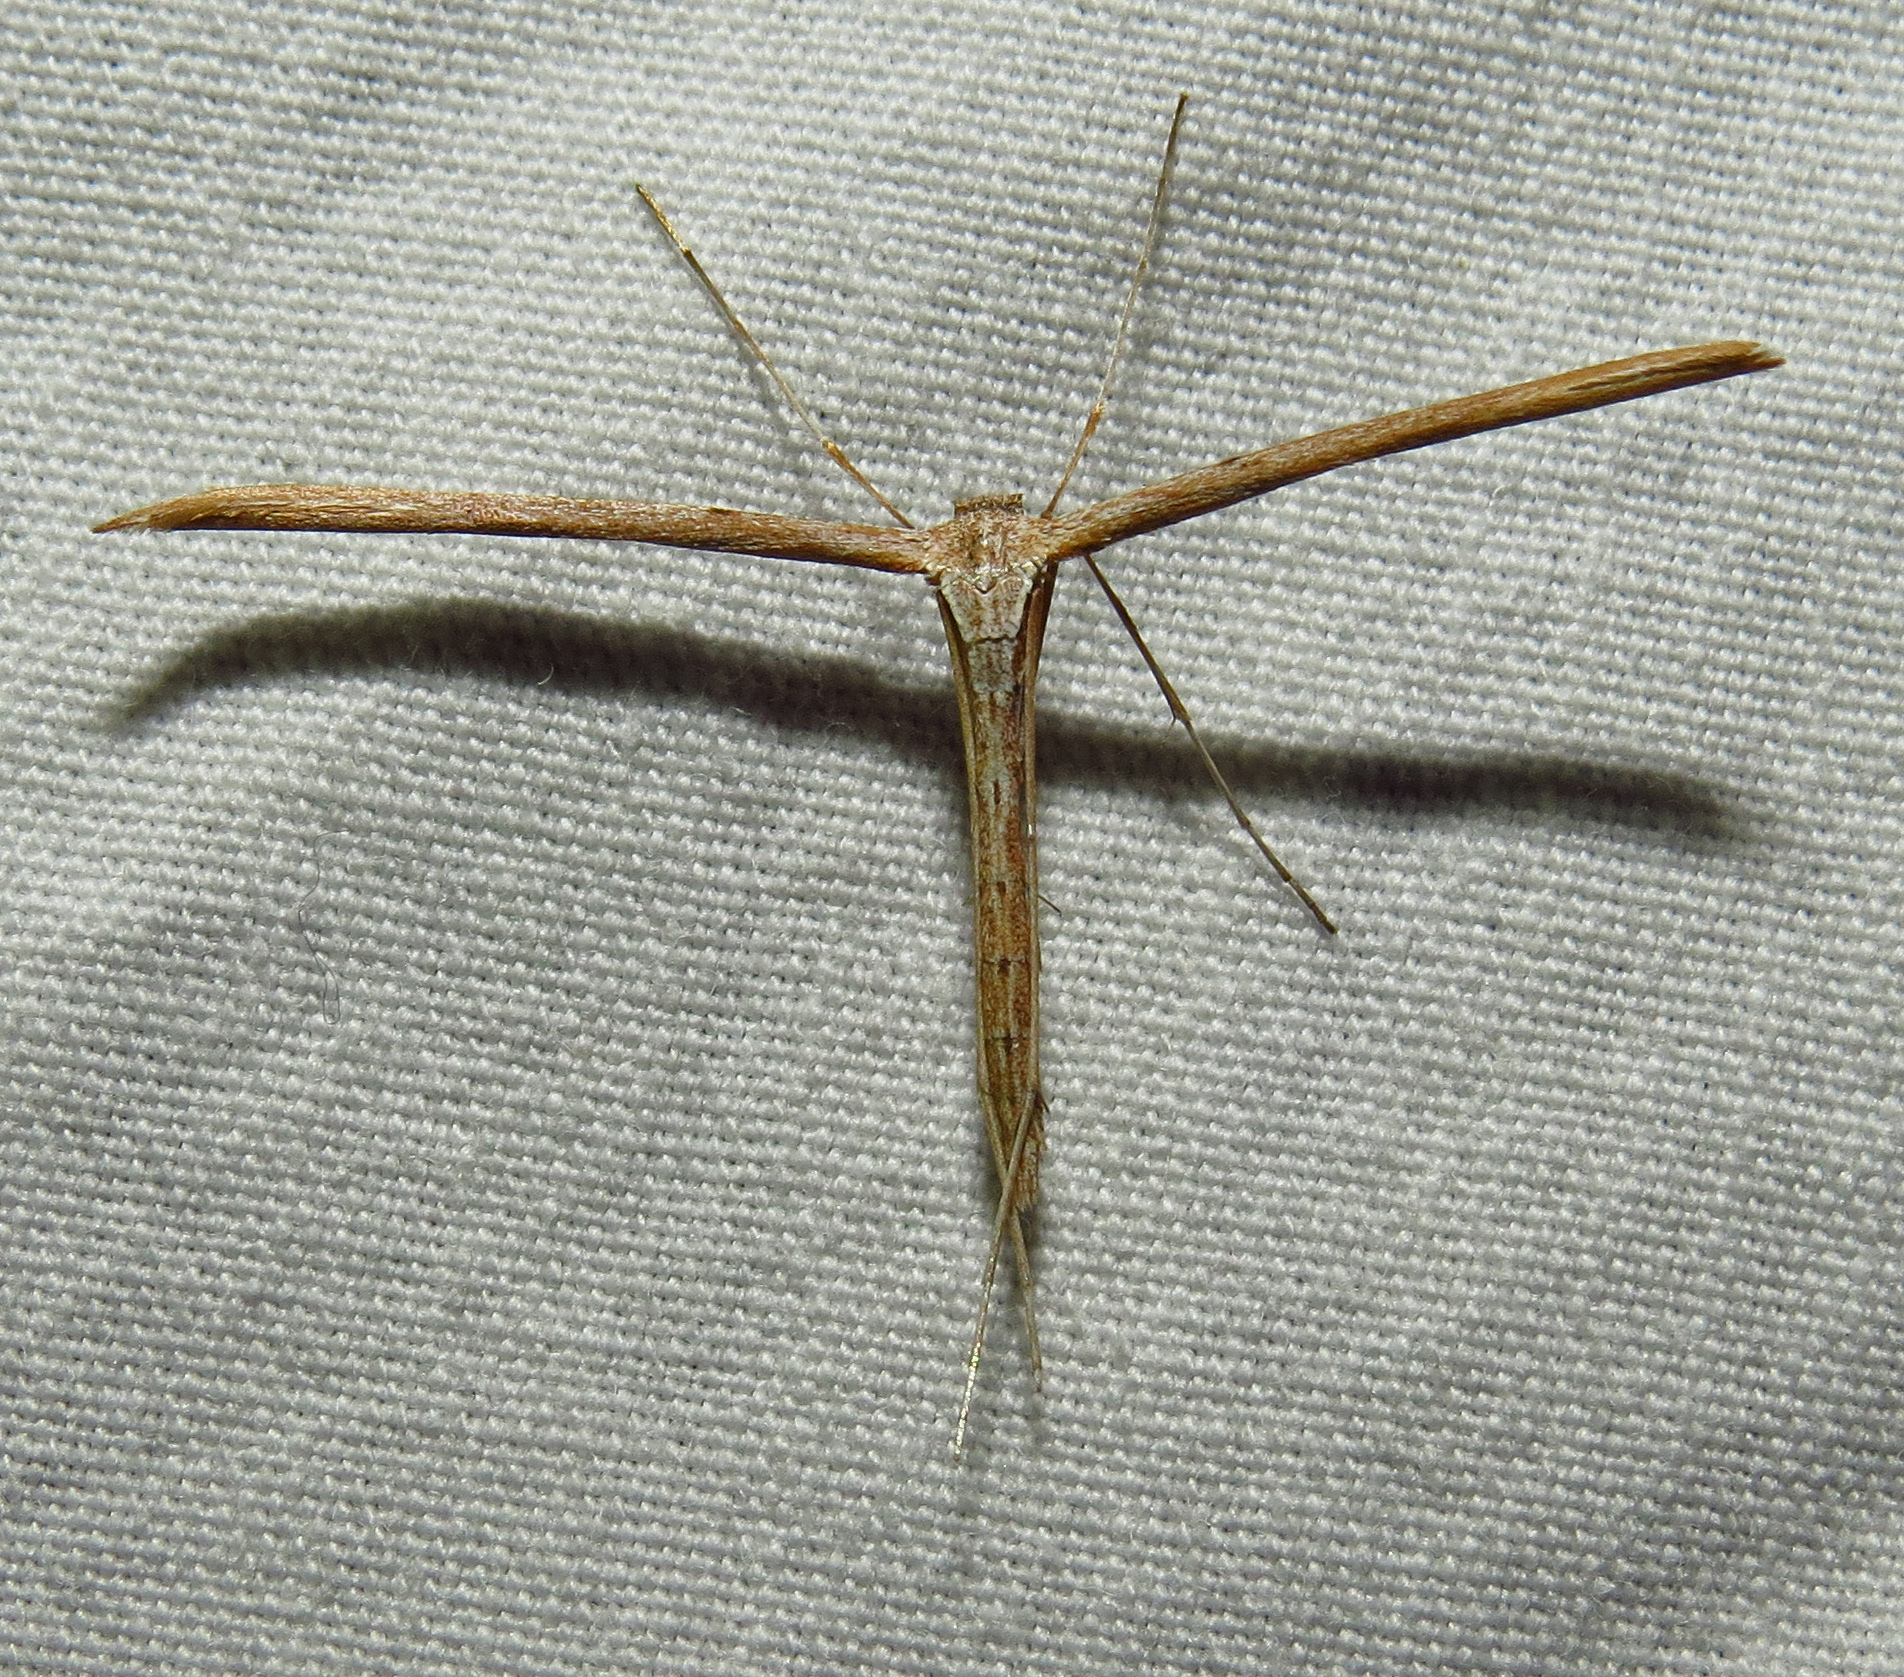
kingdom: Animalia
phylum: Arthropoda
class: Insecta
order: Lepidoptera
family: Pterophoridae
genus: Emmelina
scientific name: Emmelina monodactyla
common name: Common plume
